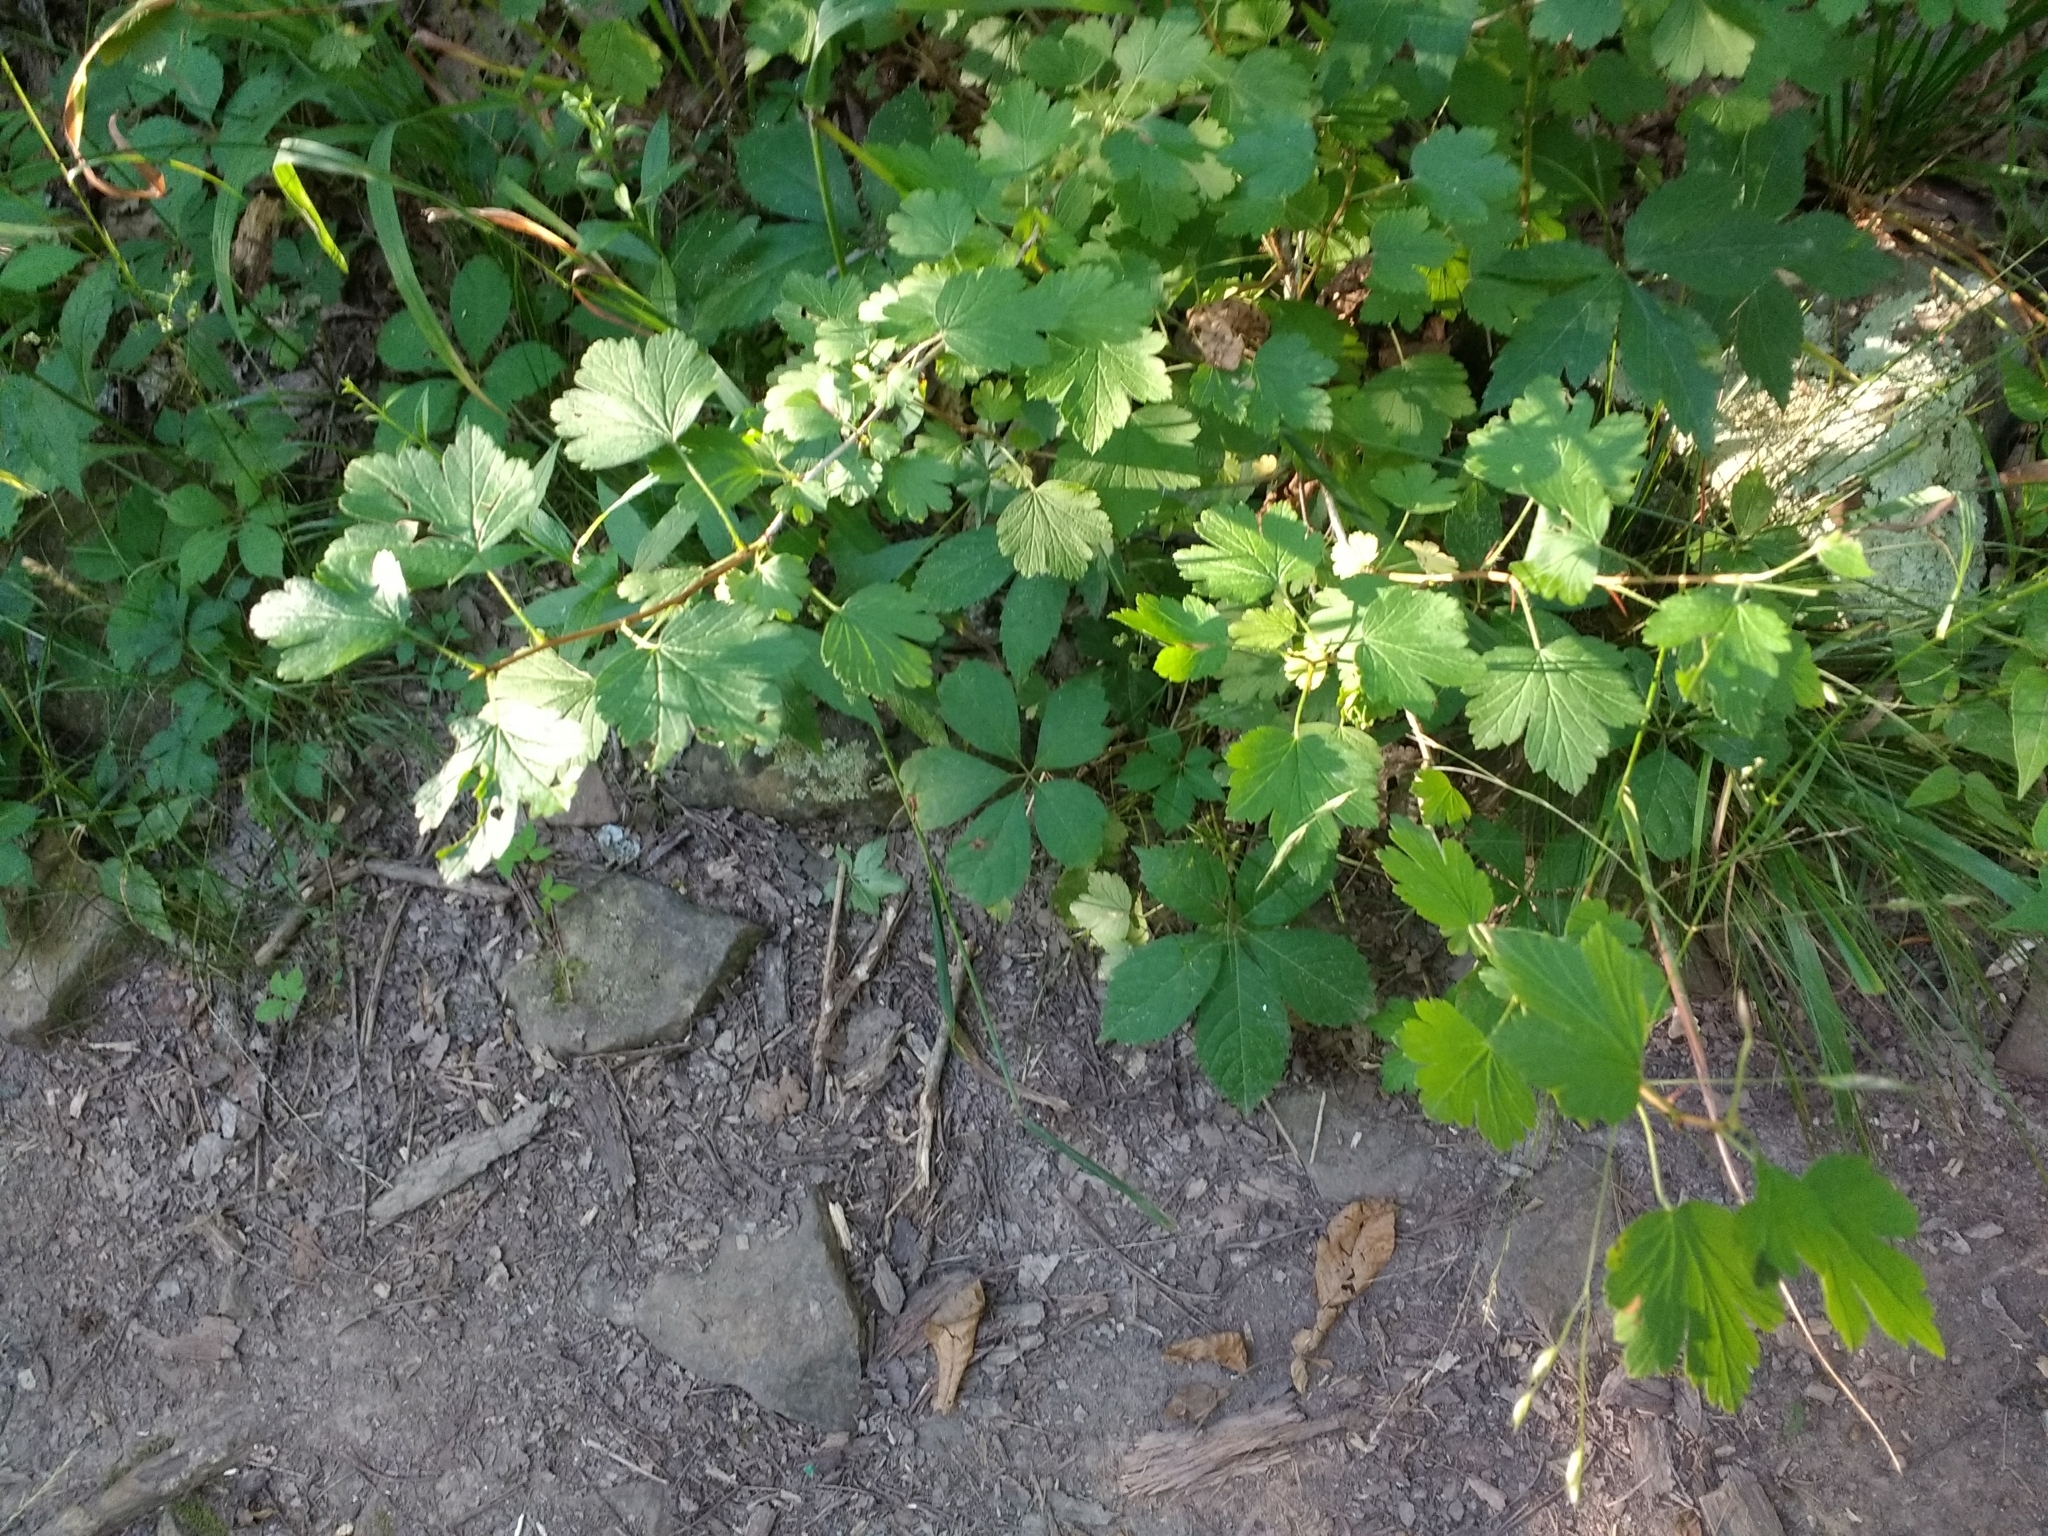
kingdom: Plantae
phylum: Tracheophyta
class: Magnoliopsida
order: Saxifragales
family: Grossulariaceae
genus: Ribes
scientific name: Ribes missouriense
